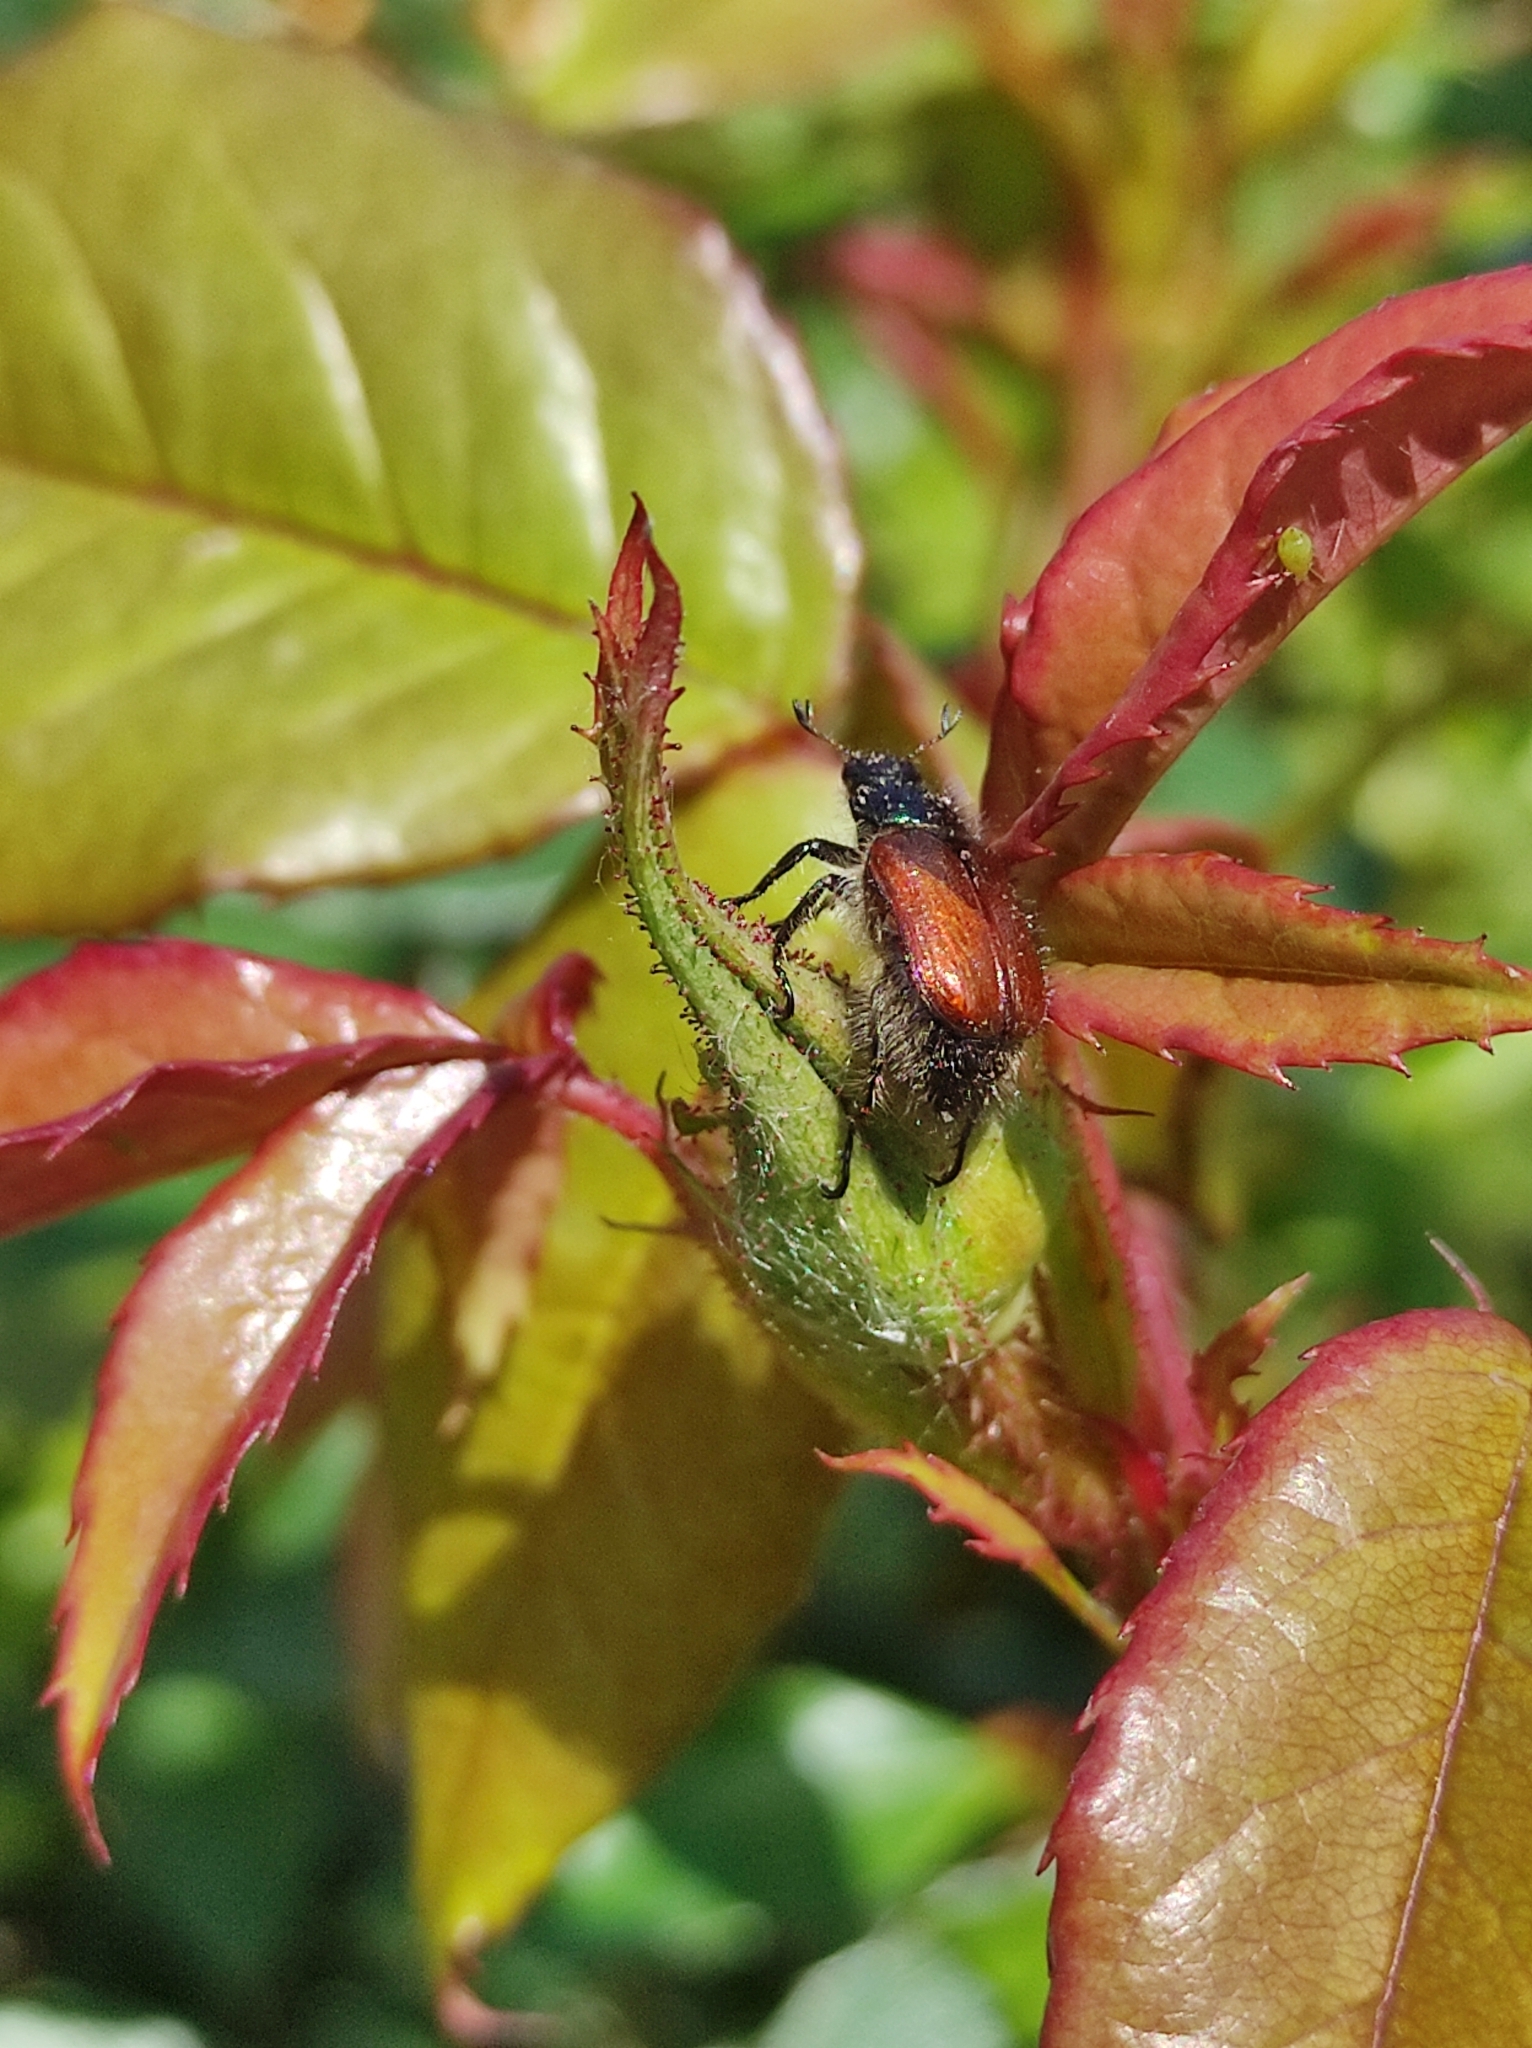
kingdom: Animalia
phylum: Arthropoda
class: Insecta
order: Coleoptera
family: Scarabaeidae
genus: Phyllopertha
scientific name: Phyllopertha horticola
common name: Garden chafer
